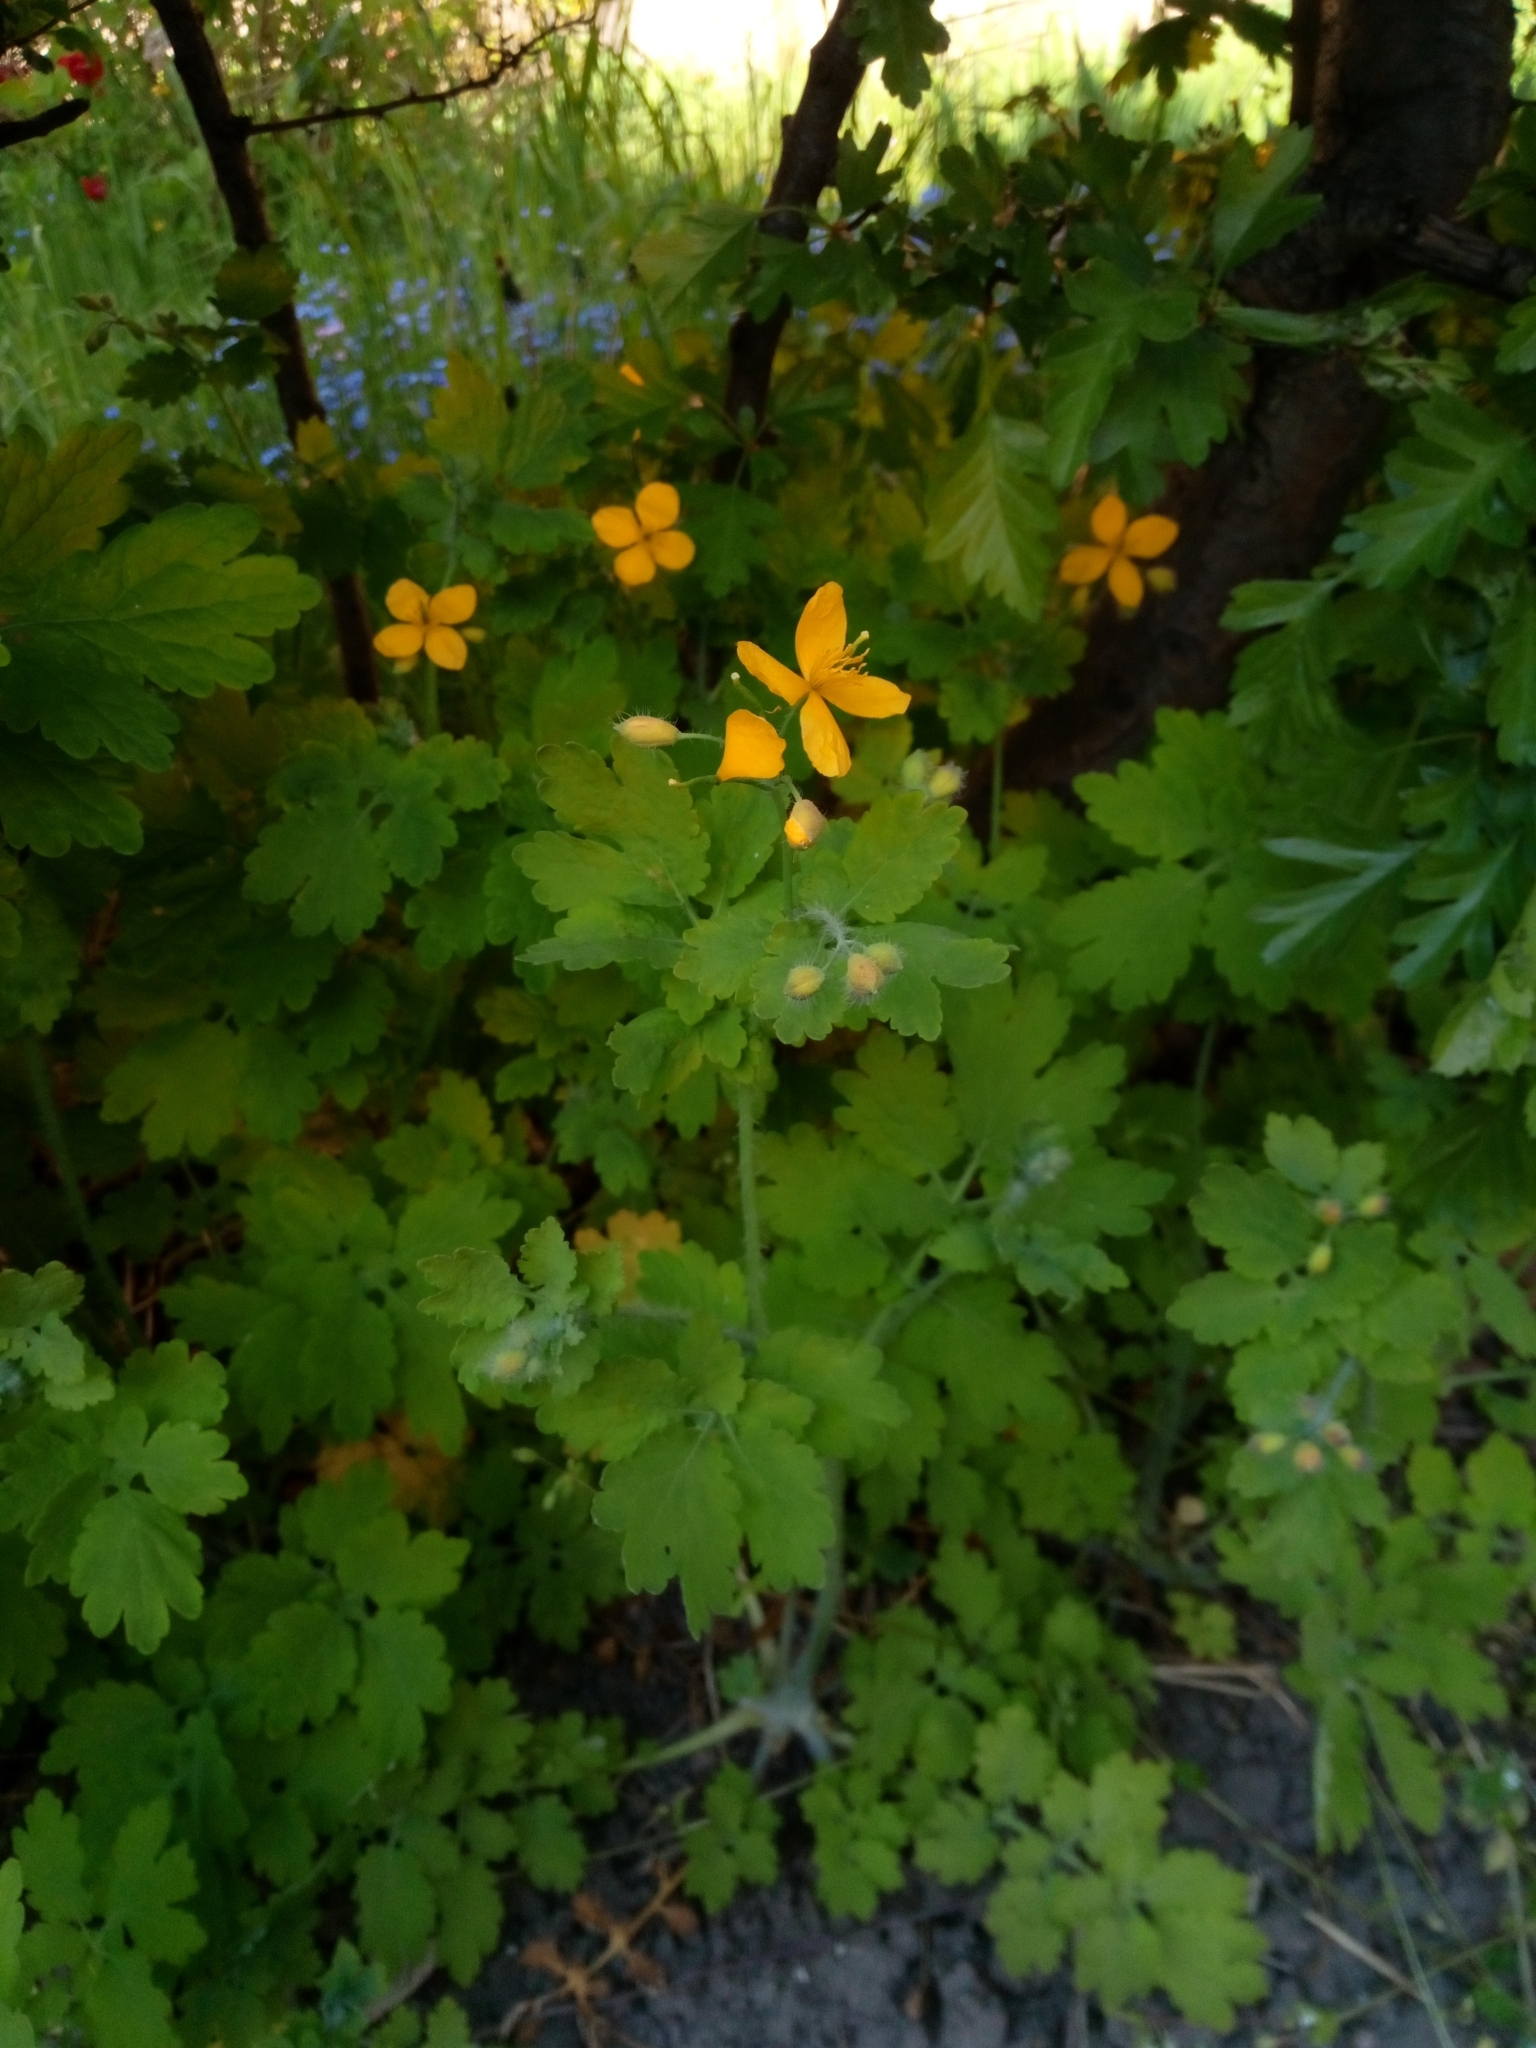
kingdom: Plantae
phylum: Tracheophyta
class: Magnoliopsida
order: Ranunculales
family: Papaveraceae
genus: Chelidonium
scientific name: Chelidonium majus
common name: Greater celandine
